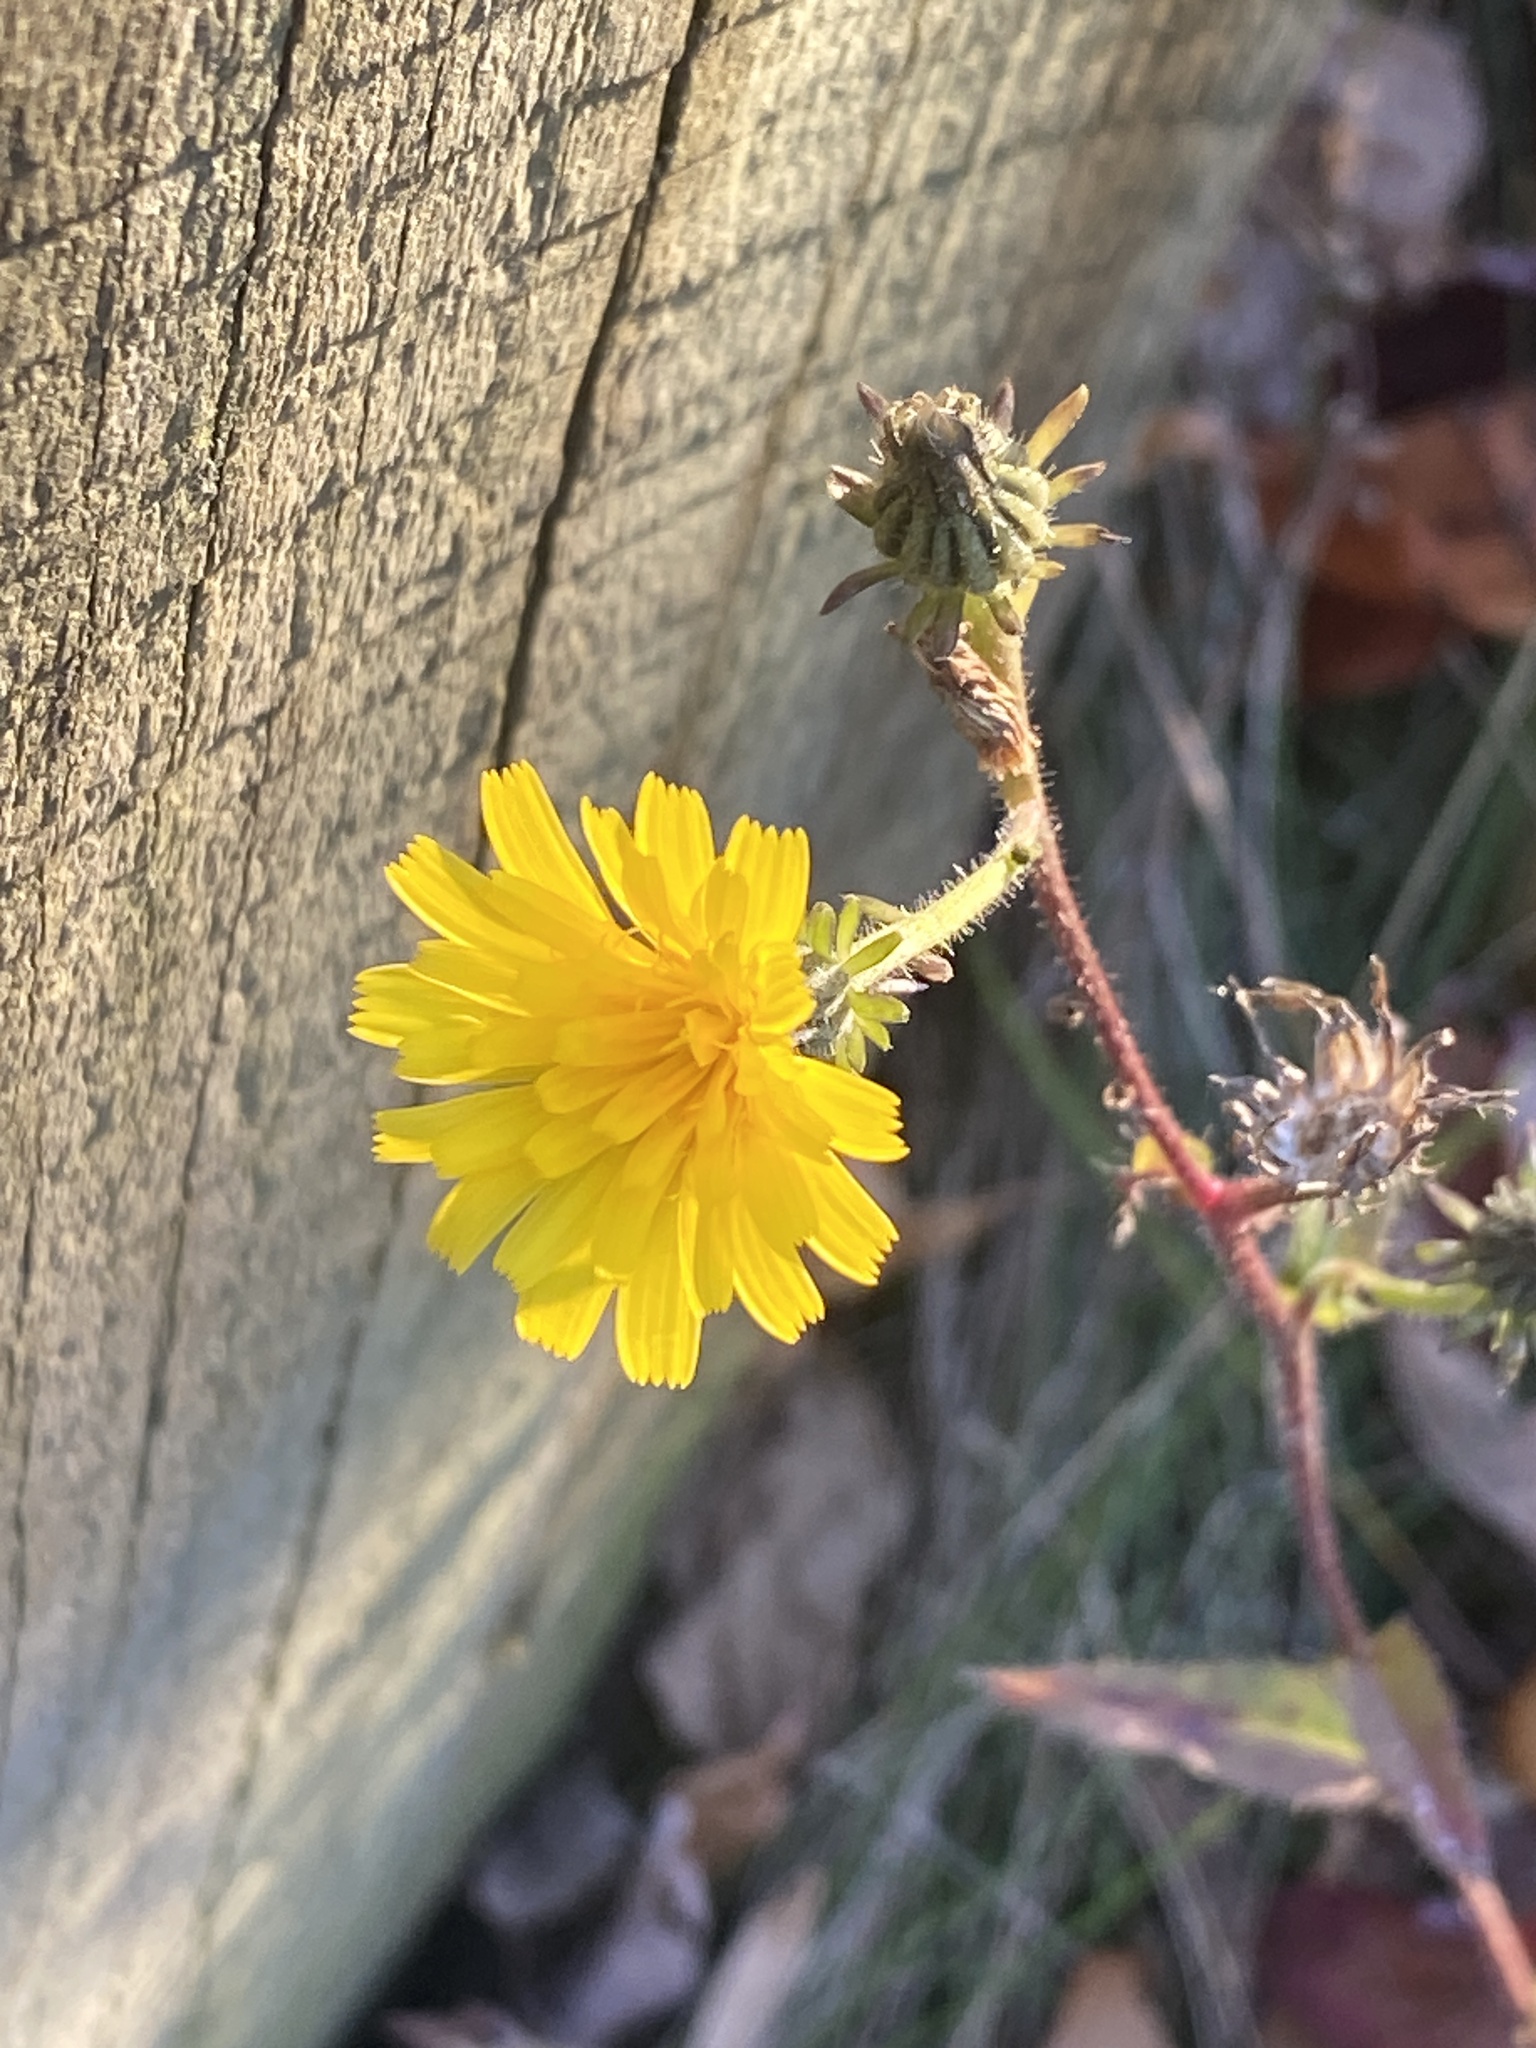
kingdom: Plantae
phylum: Tracheophyta
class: Magnoliopsida
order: Asterales
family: Asteraceae
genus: Picris
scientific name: Picris hieracioides
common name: Hawkweed oxtongue
